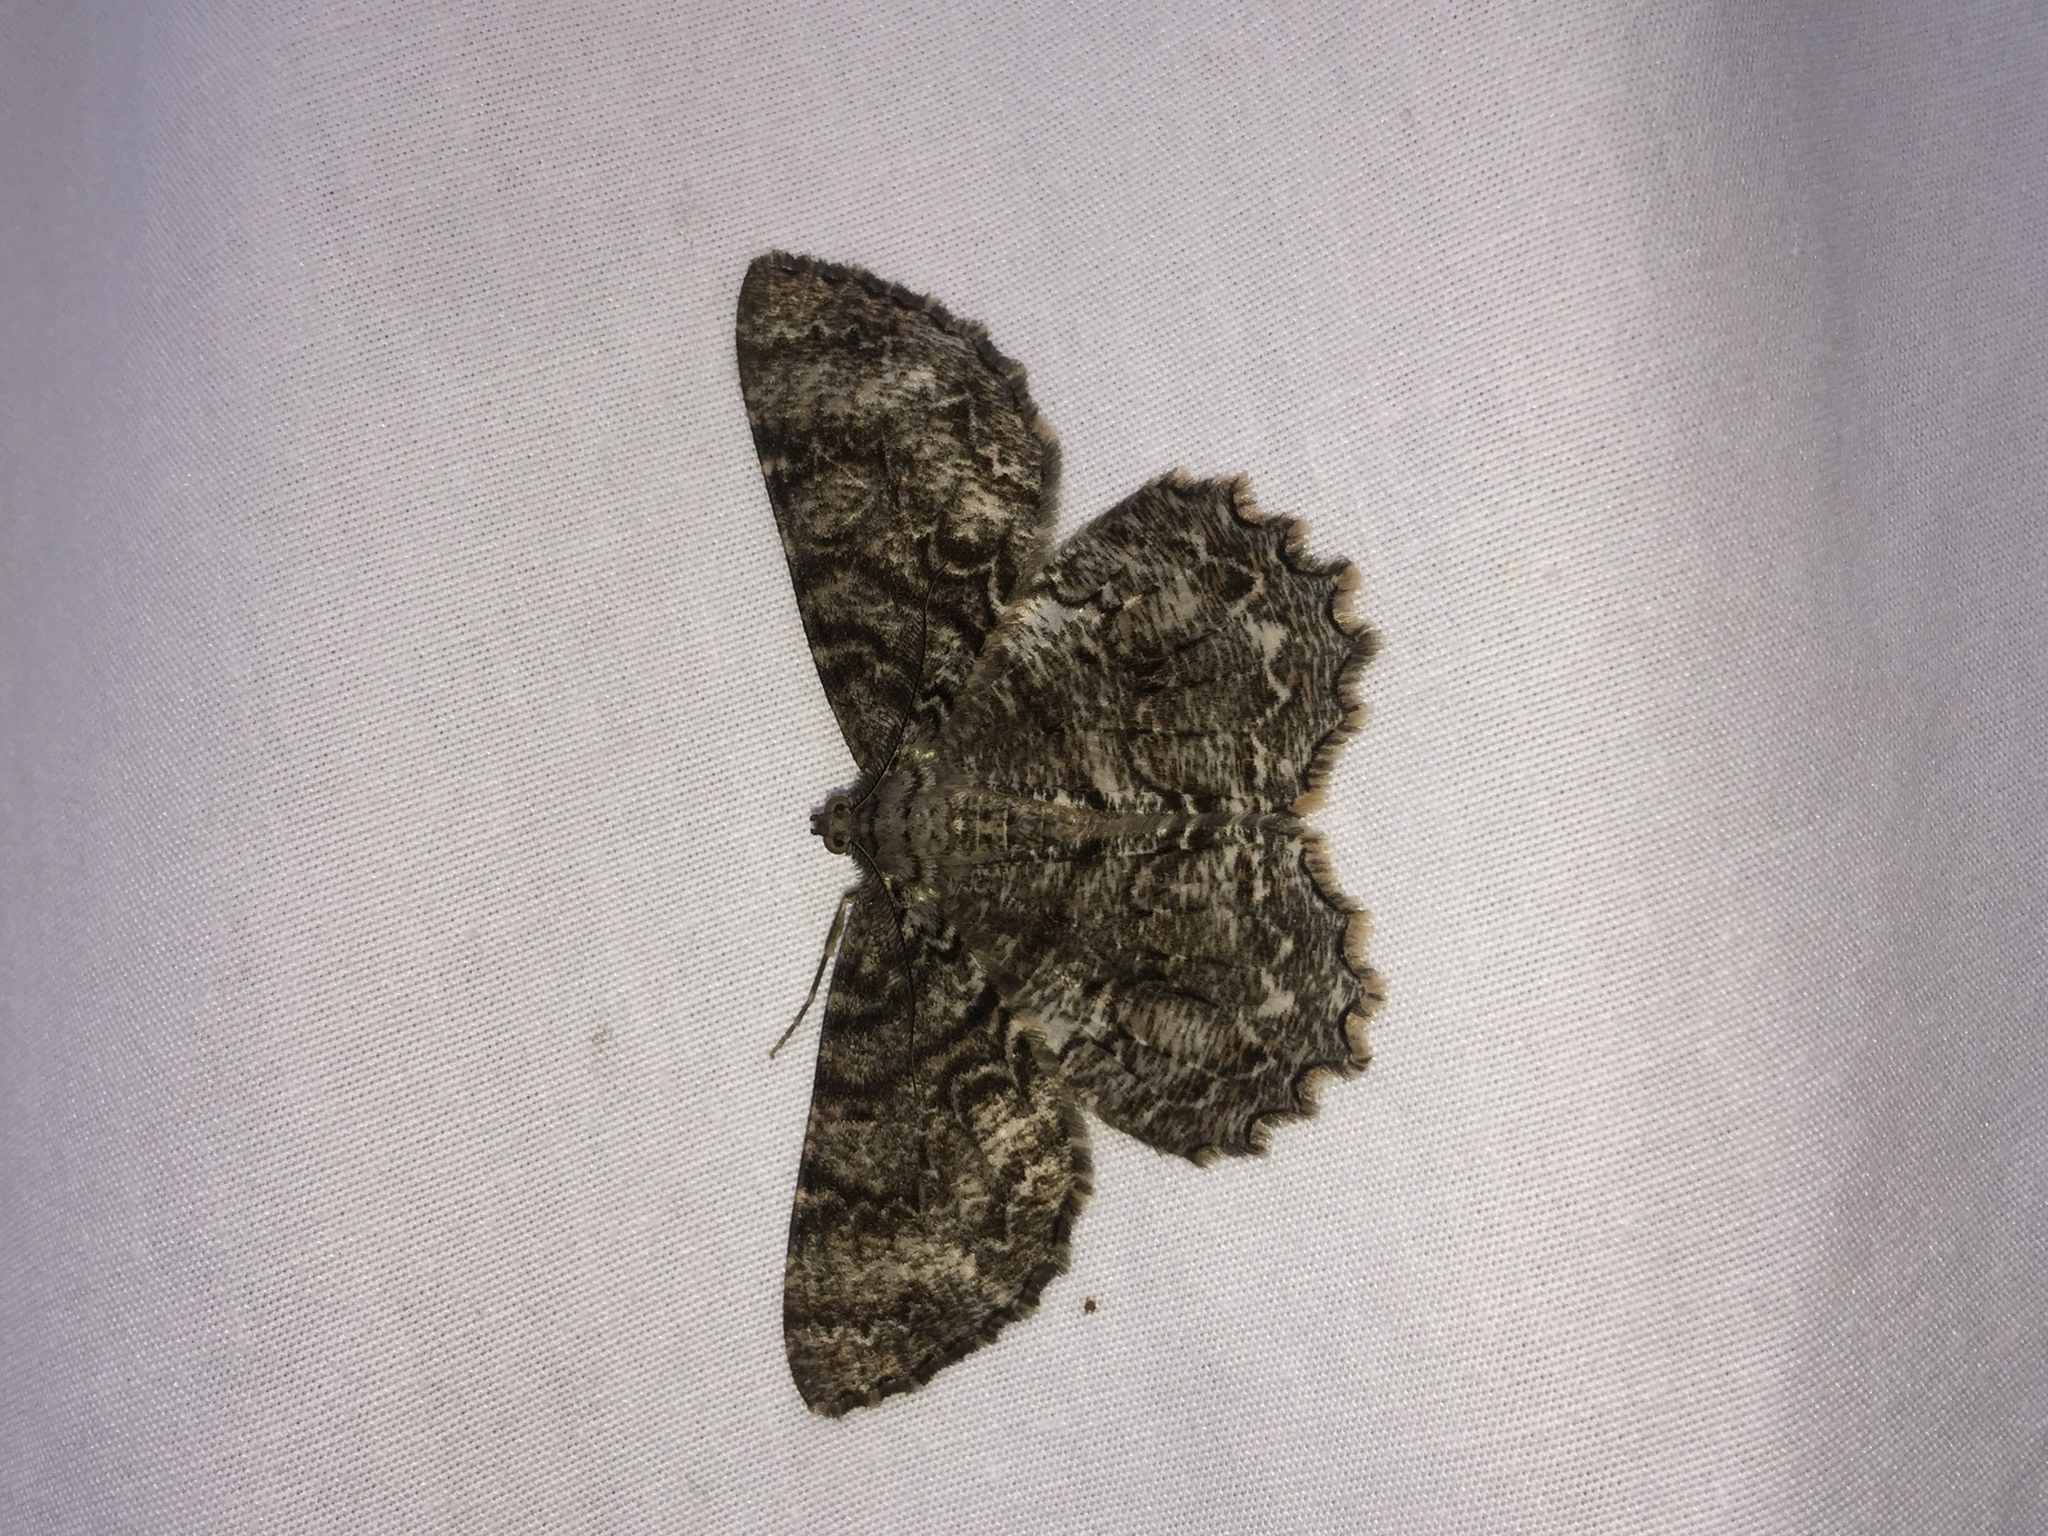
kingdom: Animalia
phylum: Arthropoda
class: Insecta
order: Lepidoptera
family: Geometridae
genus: Epimecis
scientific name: Epimecis hortaria
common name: Tulip-tree beauty
